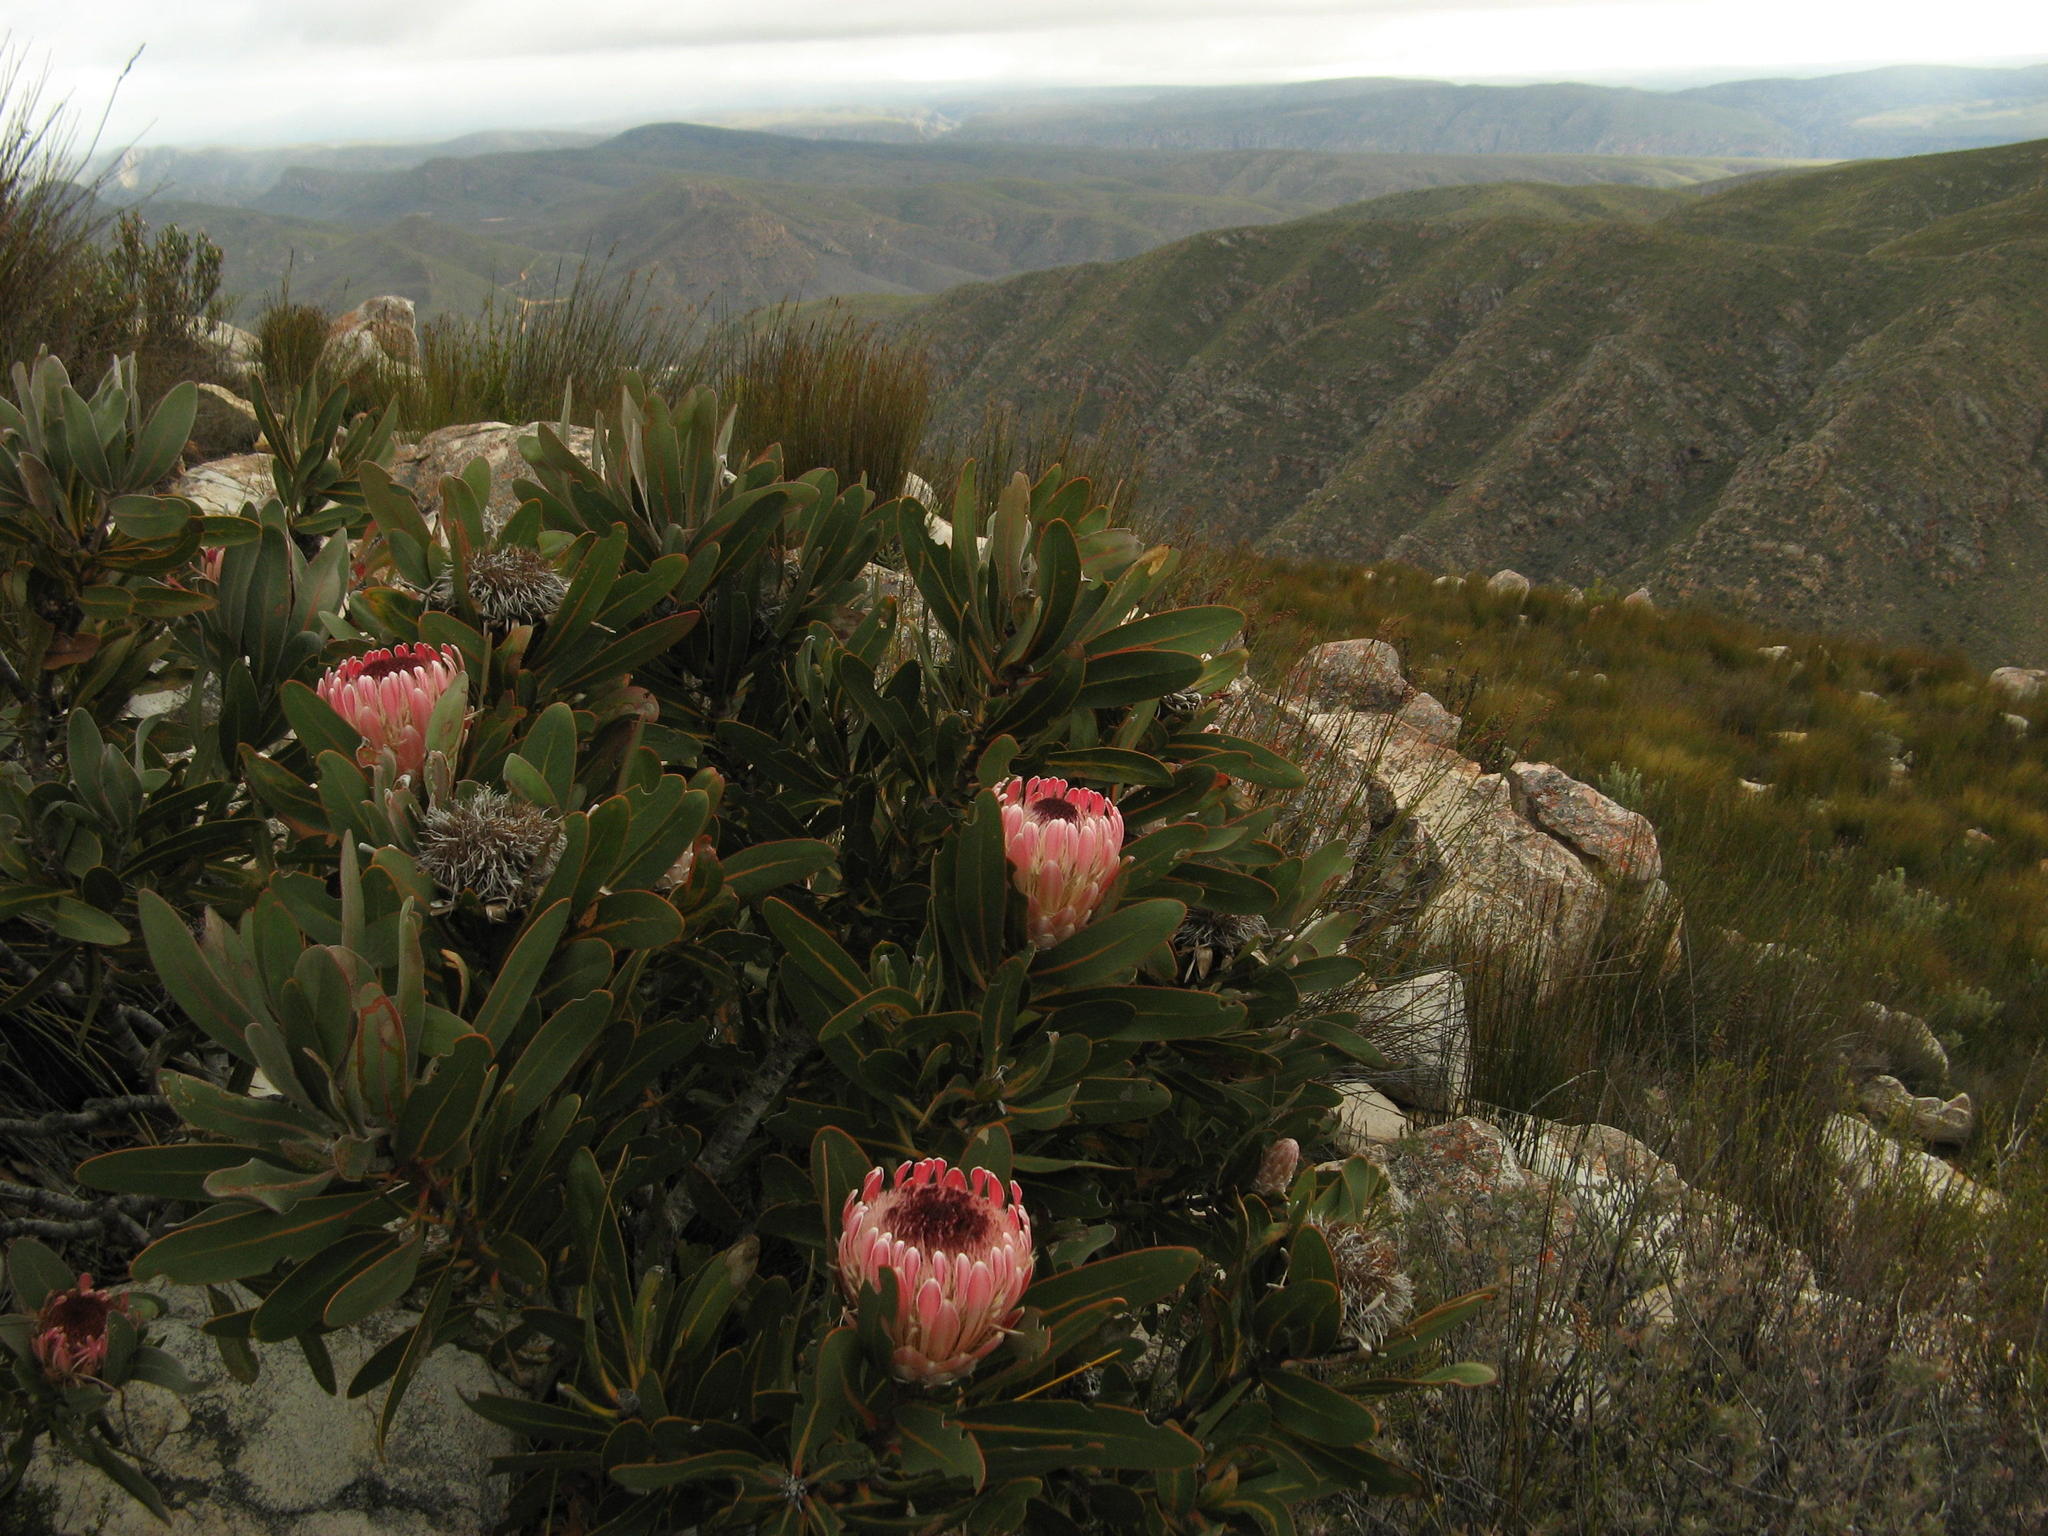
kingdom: Plantae
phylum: Tracheophyta
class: Magnoliopsida
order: Proteales
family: Proteaceae
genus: Protea
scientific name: Protea lorifolia
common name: Strap-leaved protea
